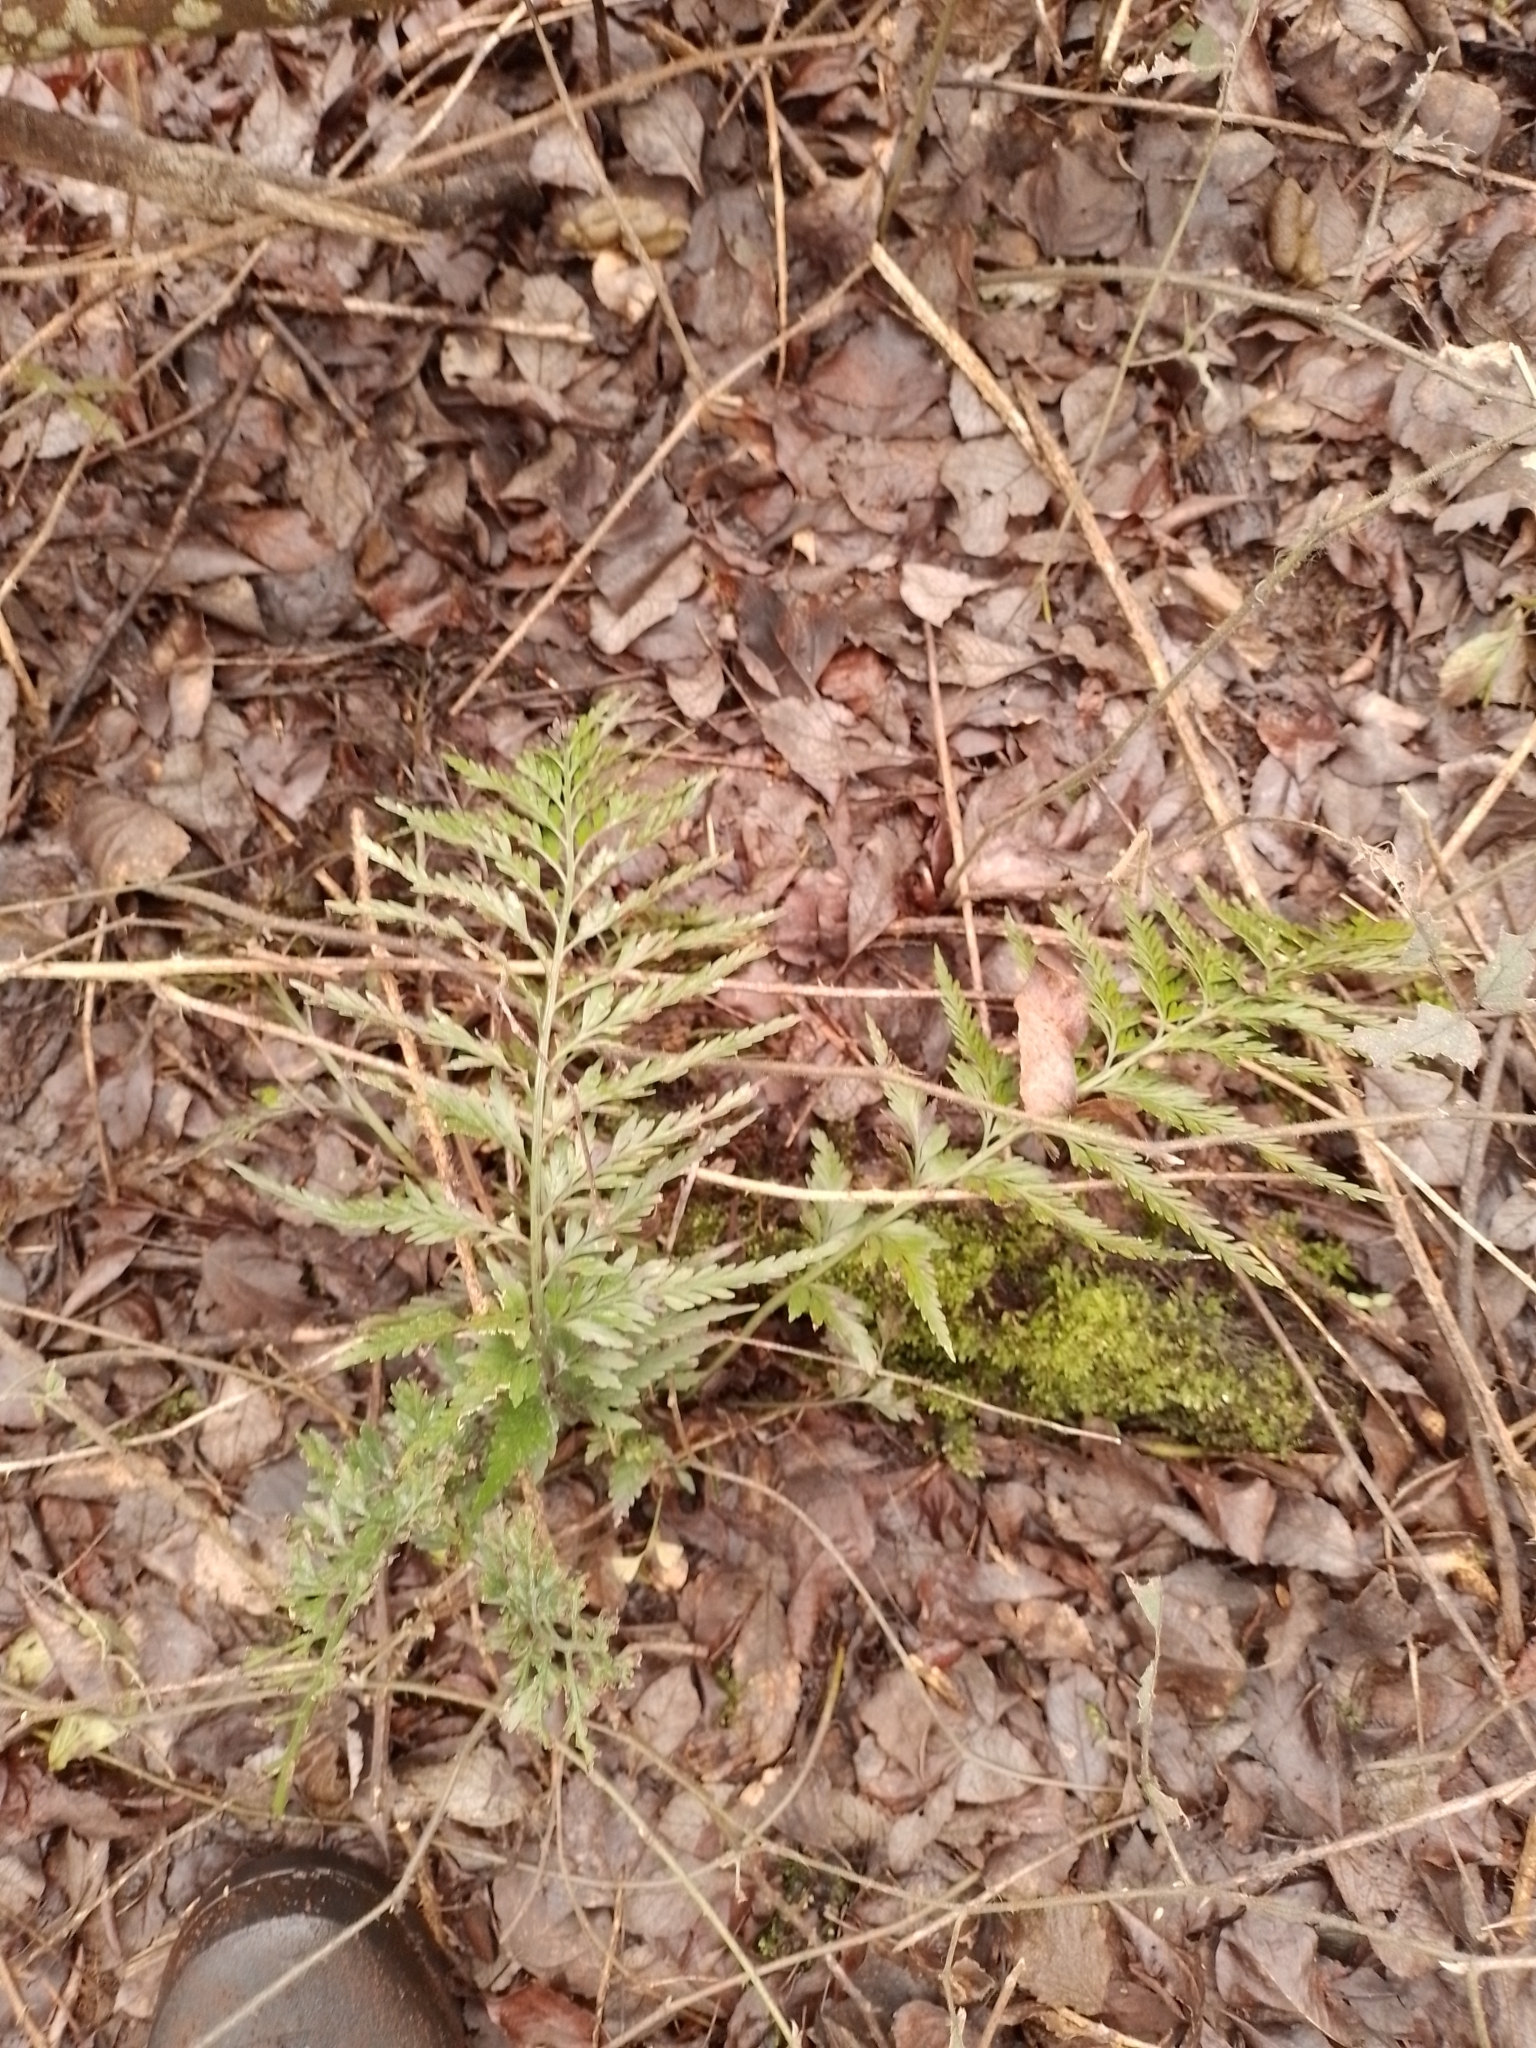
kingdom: Plantae
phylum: Tracheophyta
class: Polypodiopsida
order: Polypodiales
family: Aspleniaceae
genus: Asplenium
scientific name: Asplenium appendiculatum
